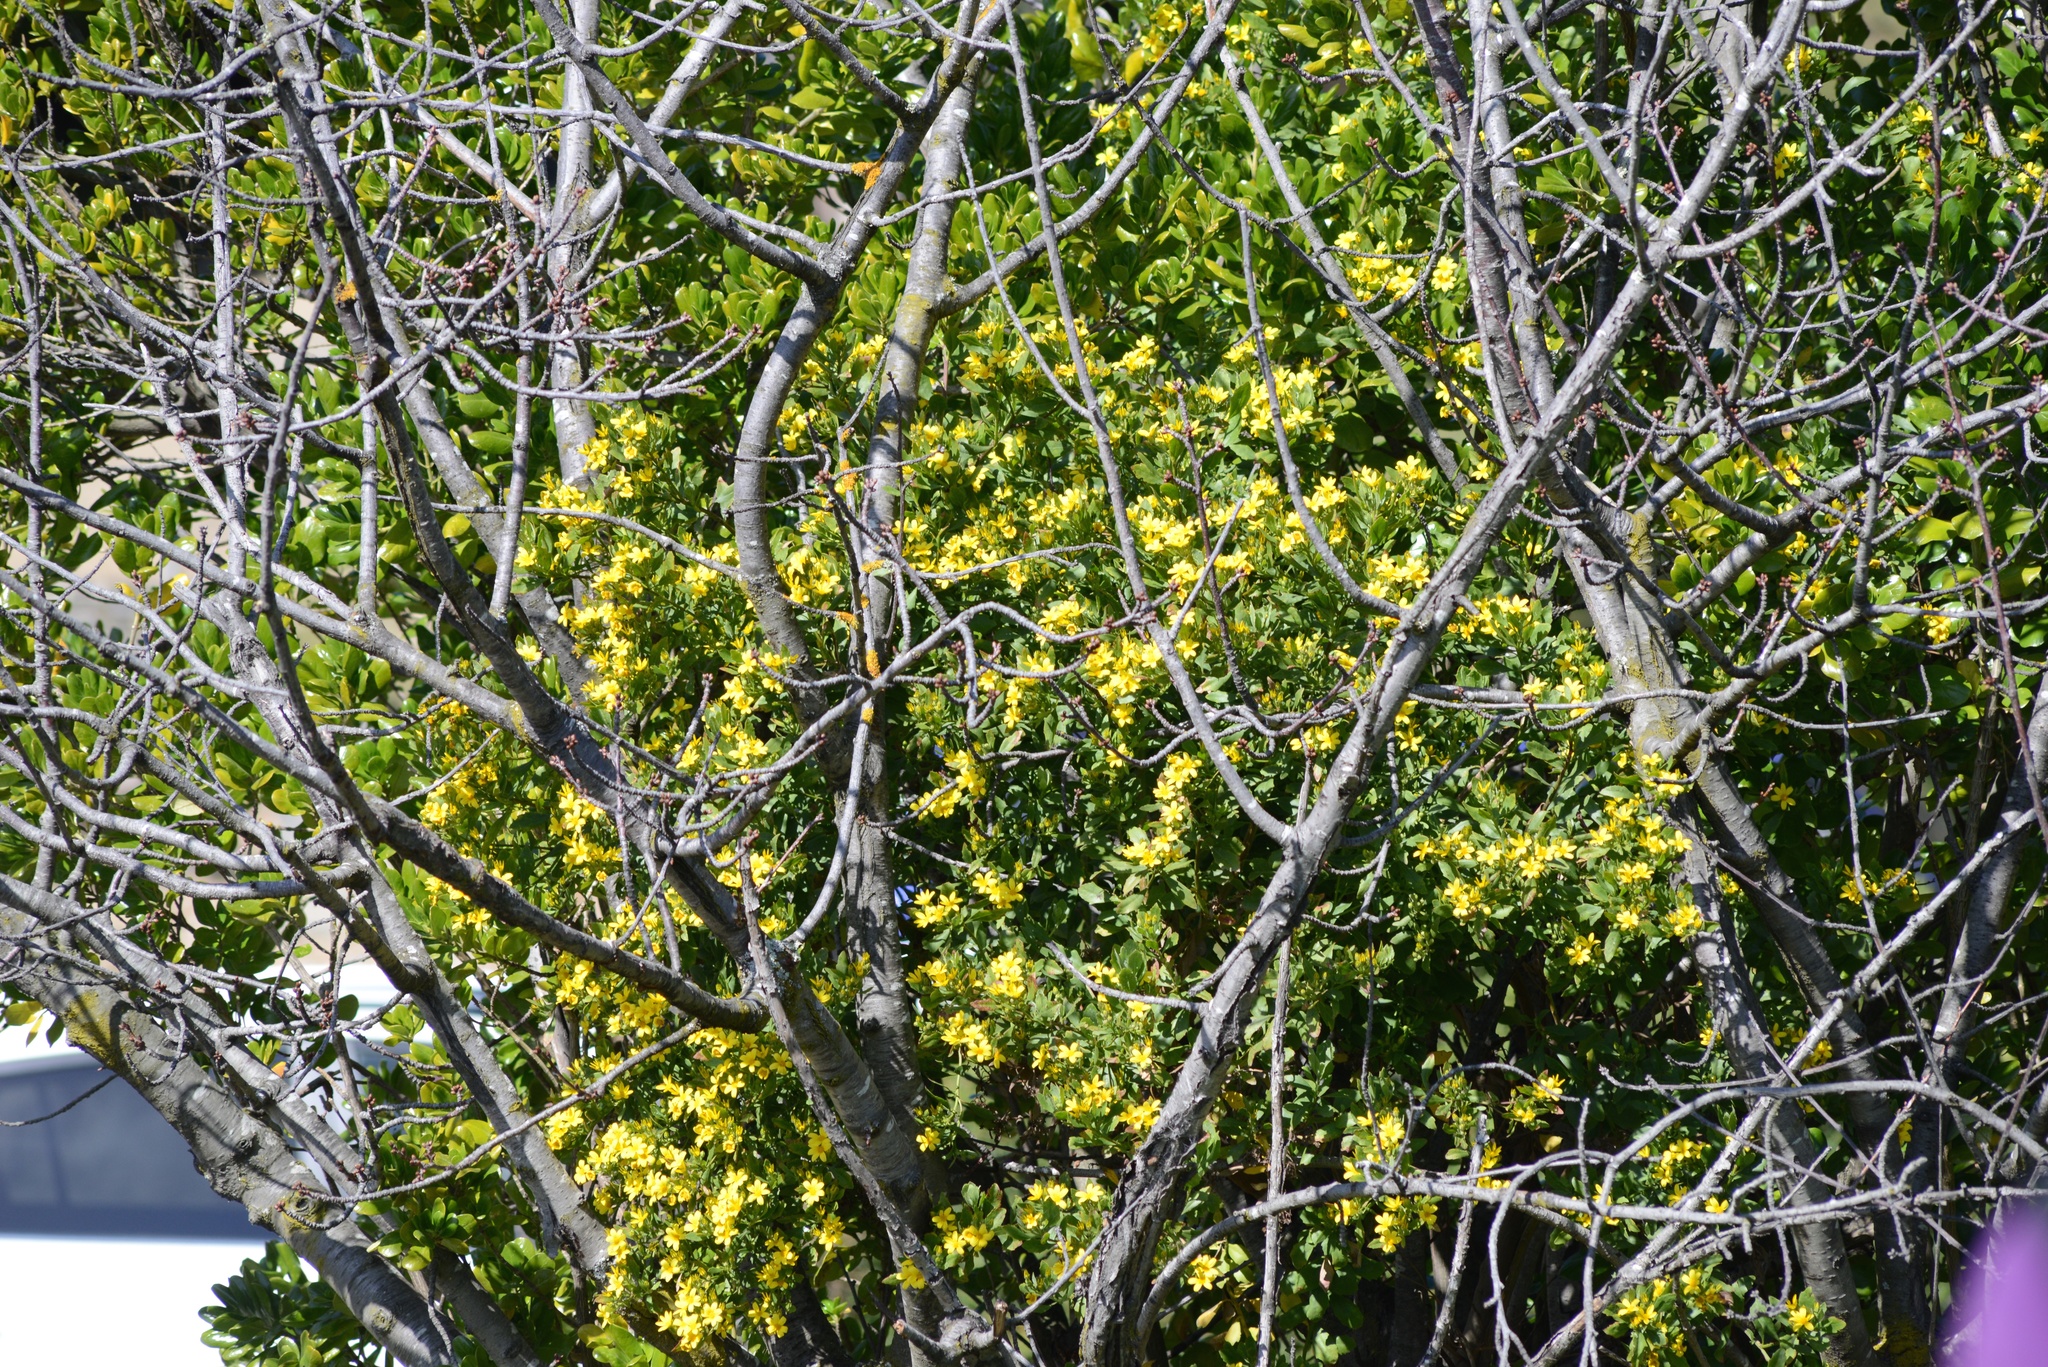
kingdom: Plantae
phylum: Tracheophyta
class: Magnoliopsida
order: Asterales
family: Asteraceae
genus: Osteospermum
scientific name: Osteospermum moniliferum
